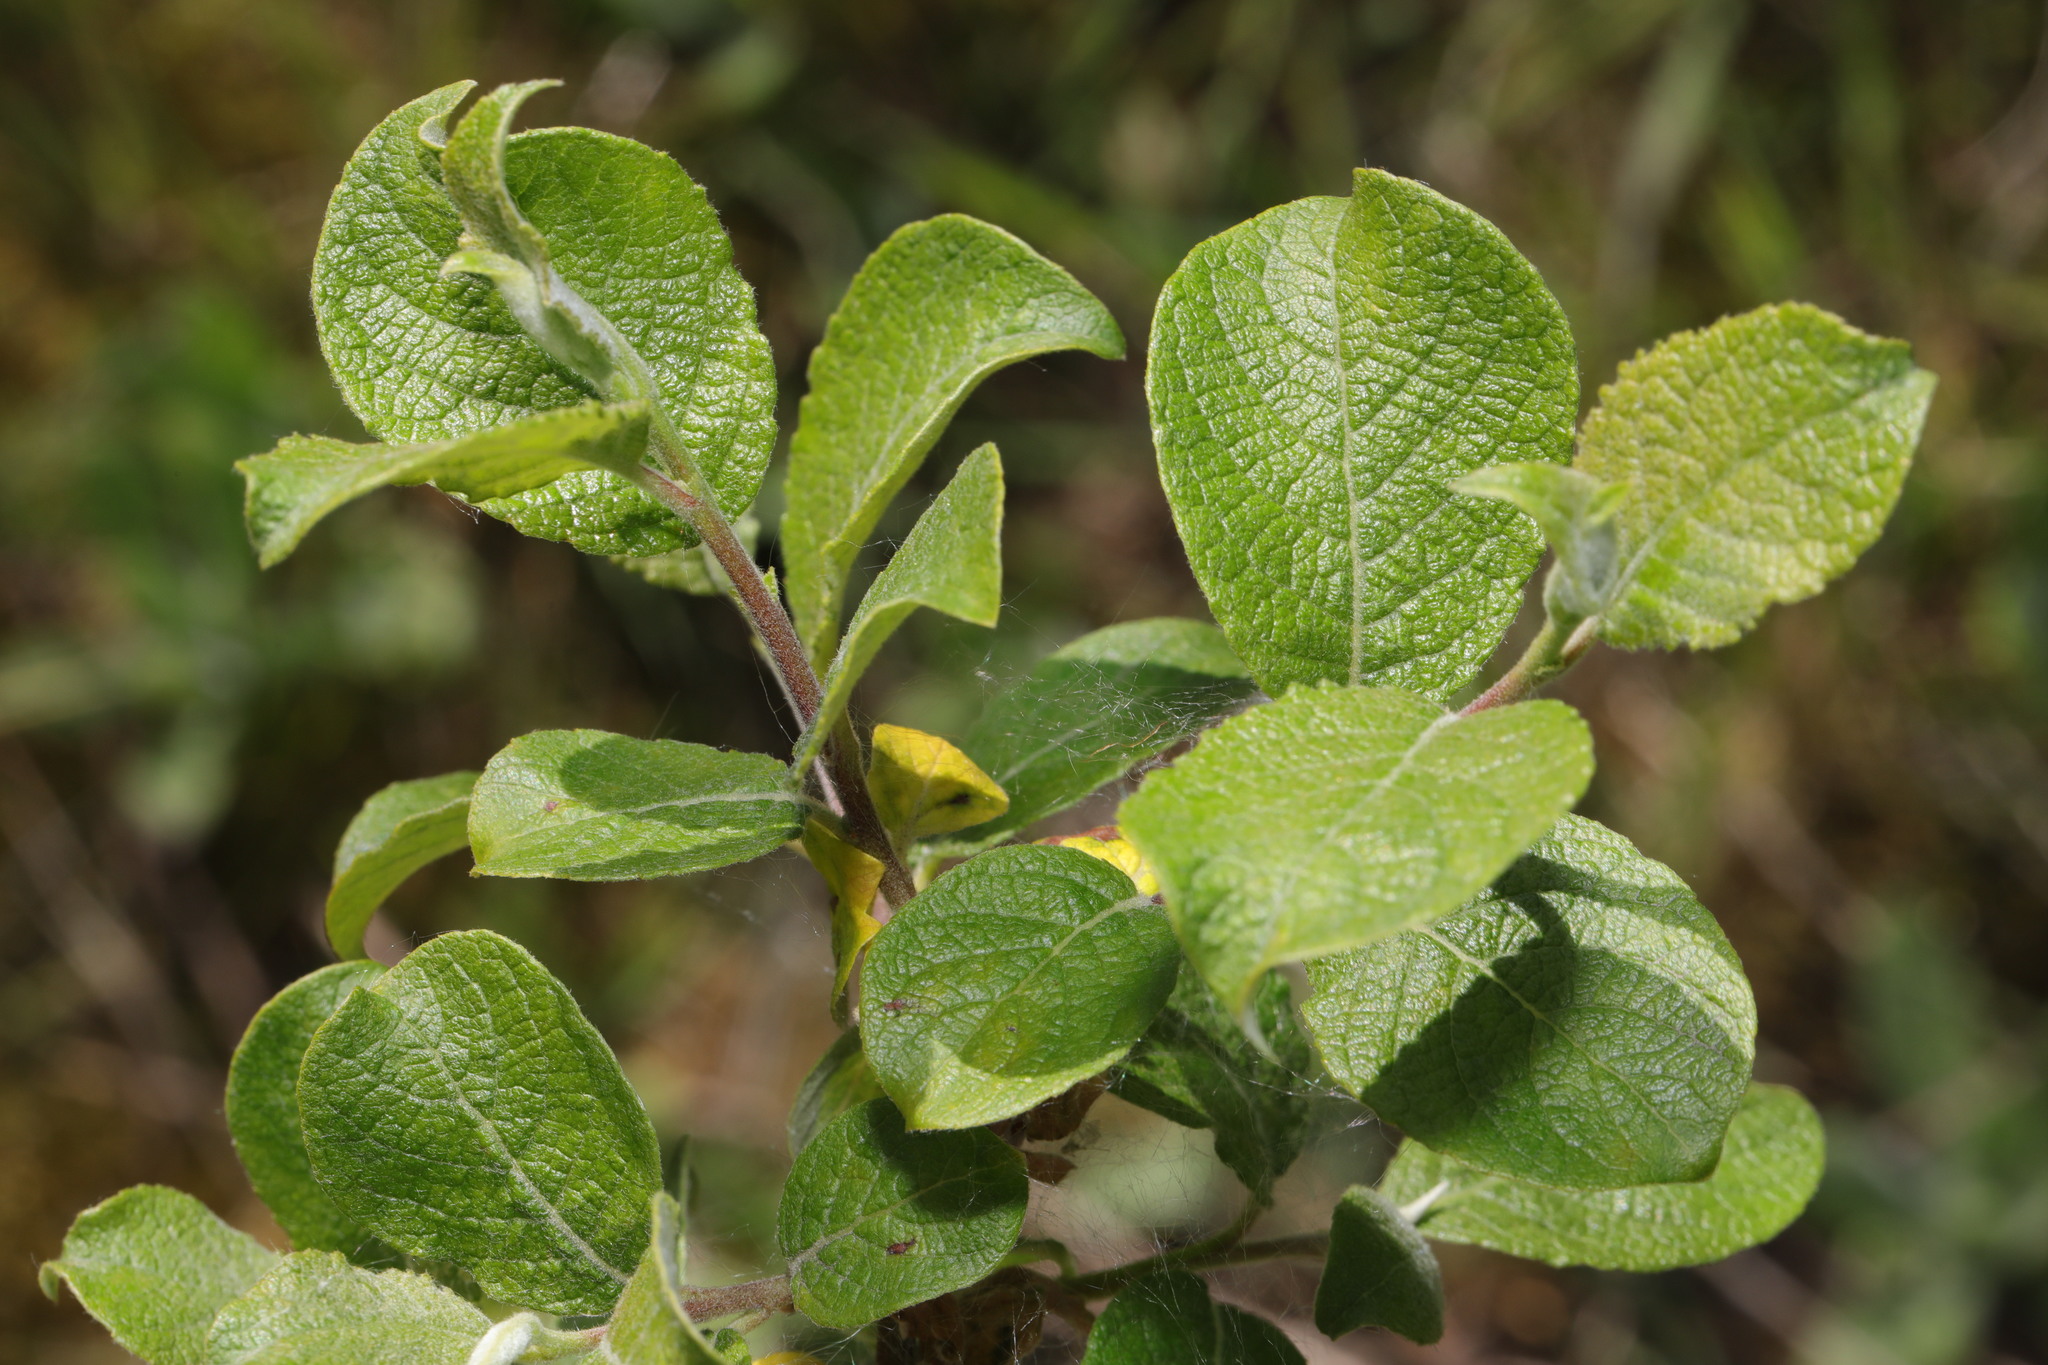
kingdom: Plantae
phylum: Tracheophyta
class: Magnoliopsida
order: Malpighiales
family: Salicaceae
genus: Salix
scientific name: Salix caprea
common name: Goat willow
